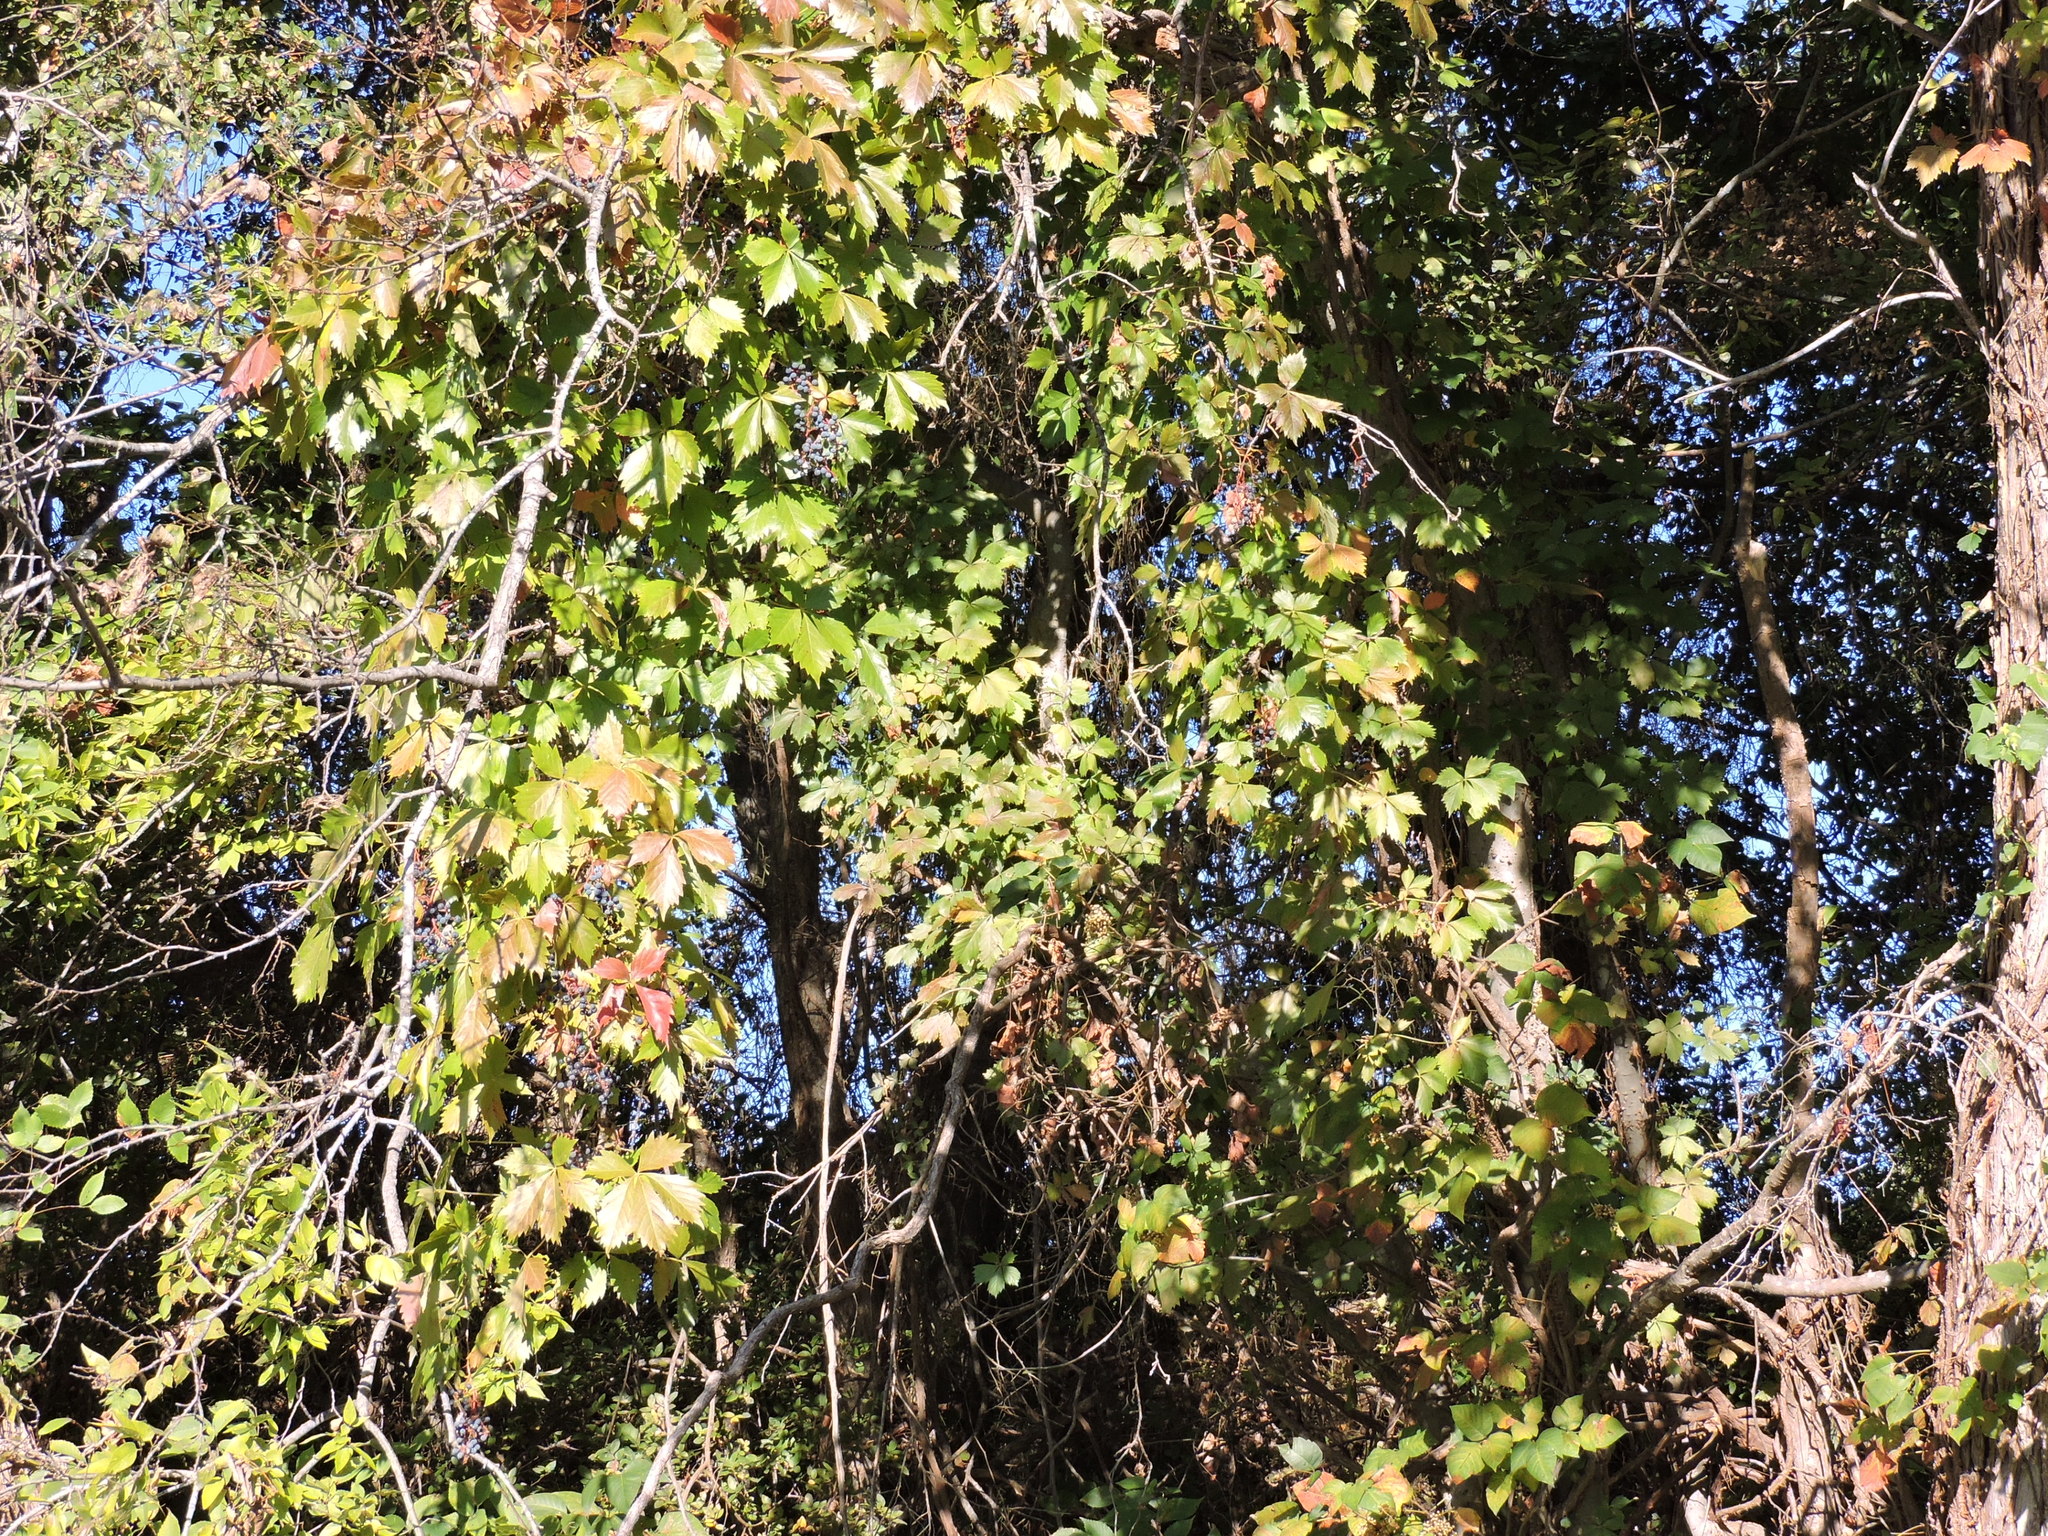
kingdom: Plantae
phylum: Tracheophyta
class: Magnoliopsida
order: Vitales
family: Vitaceae
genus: Parthenocissus
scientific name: Parthenocissus quinquefolia
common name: Virginia-creeper
